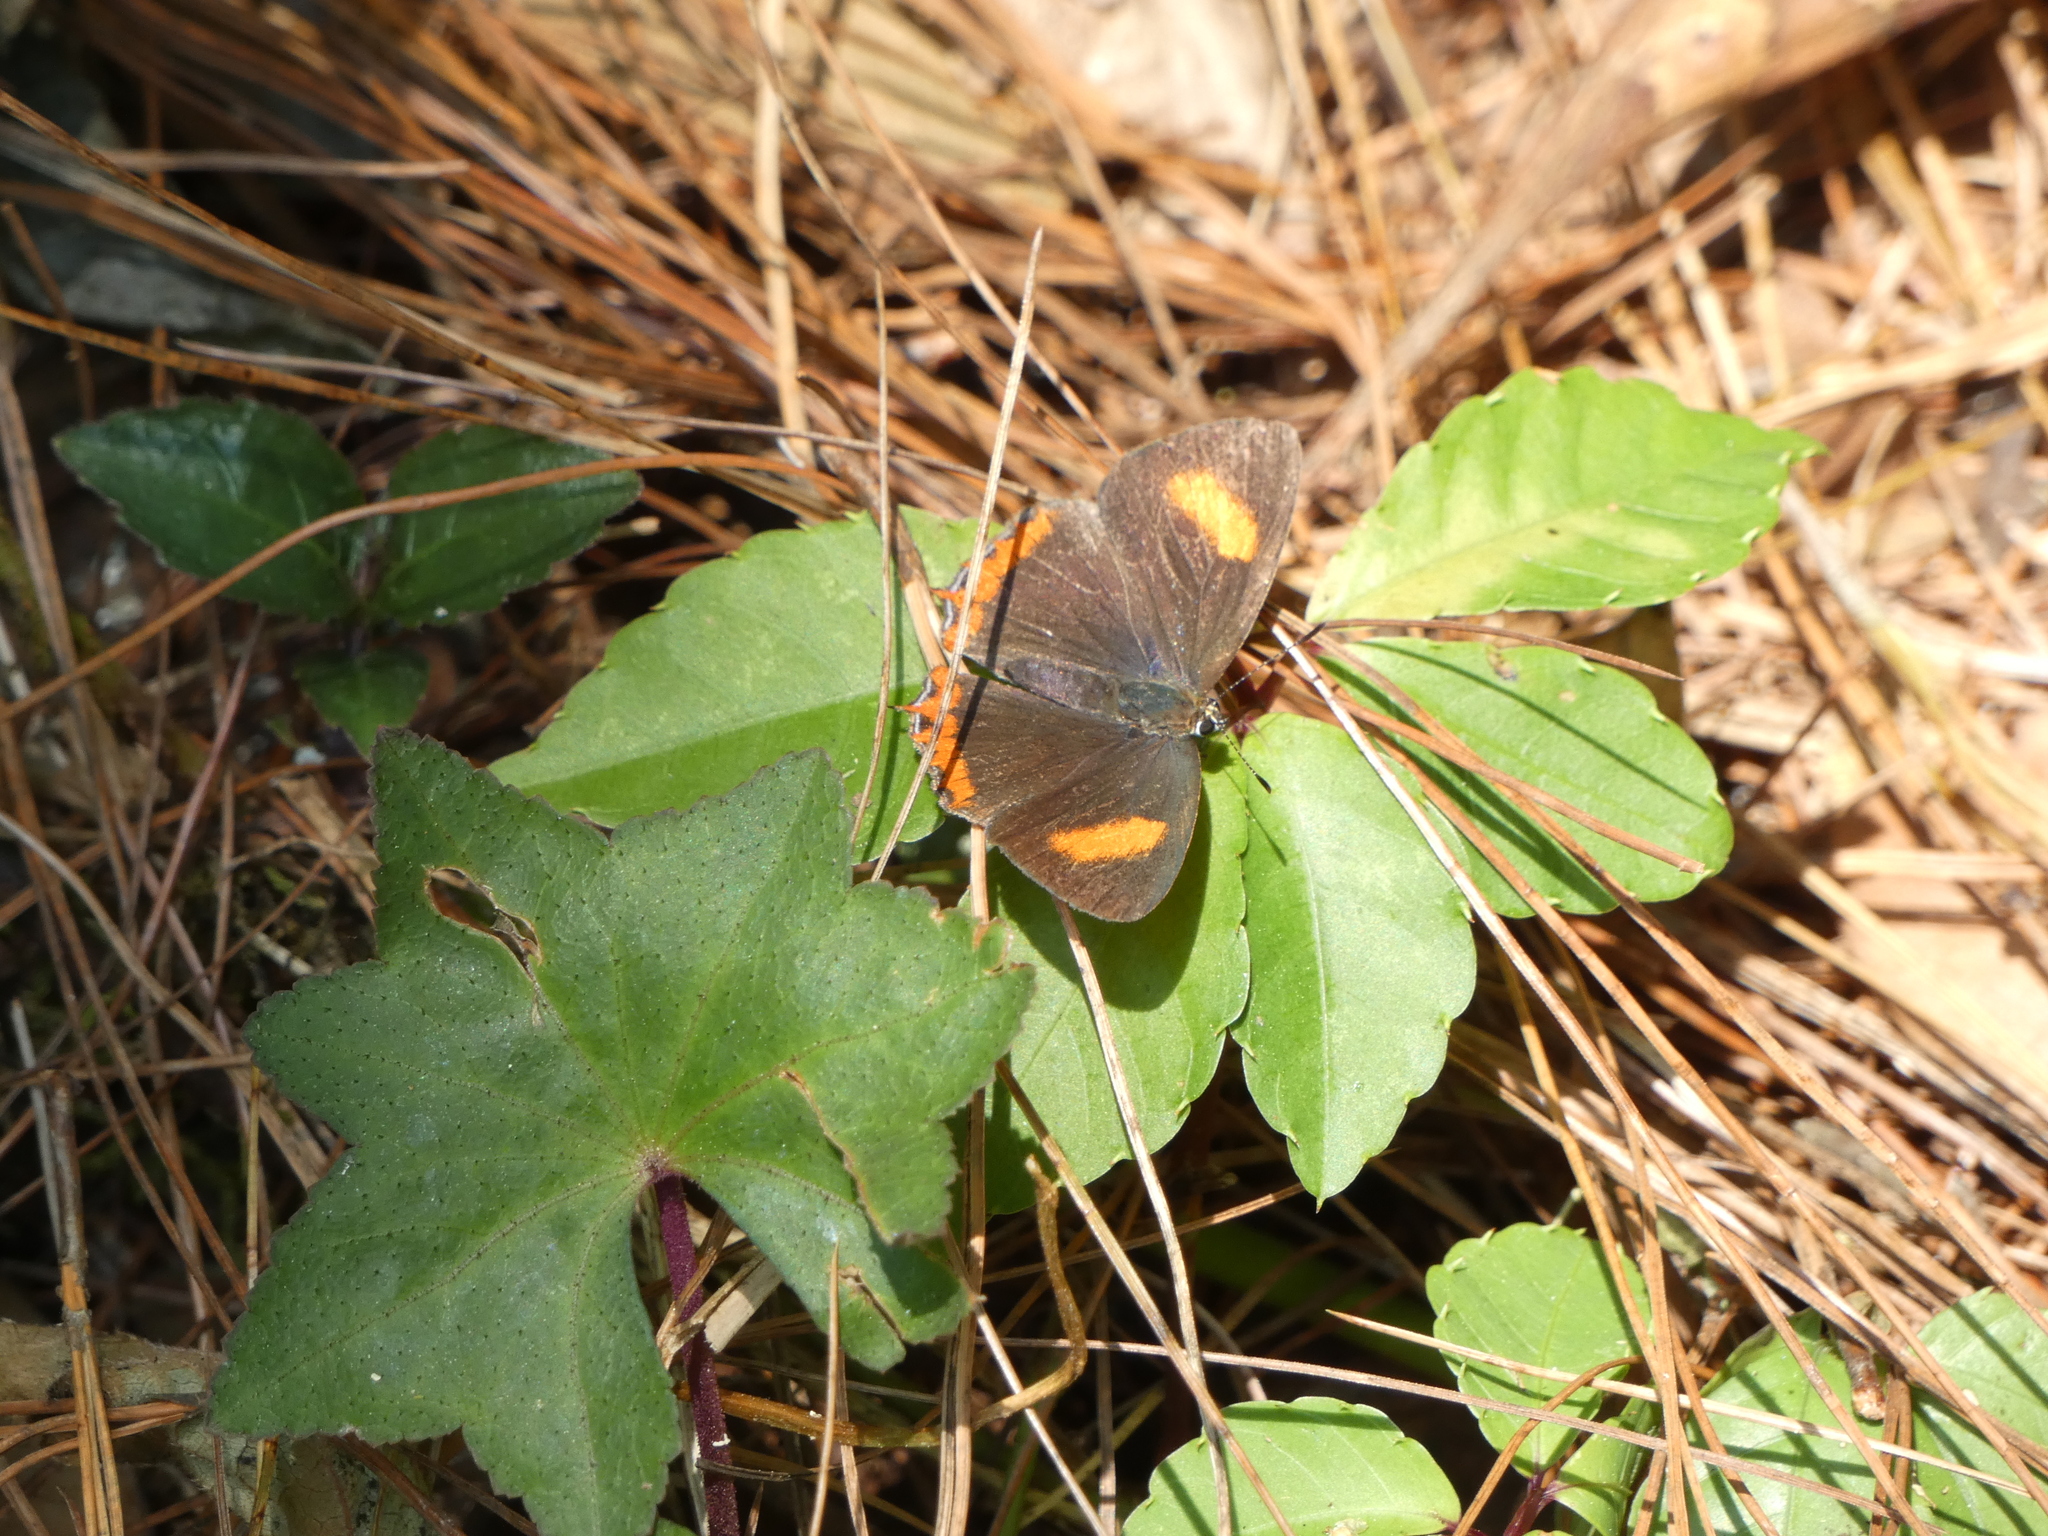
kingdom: Animalia
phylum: Arthropoda
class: Insecta
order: Lepidoptera
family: Lycaenidae
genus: Heliophorus
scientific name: Heliophorus epicles
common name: Purple sapphire
